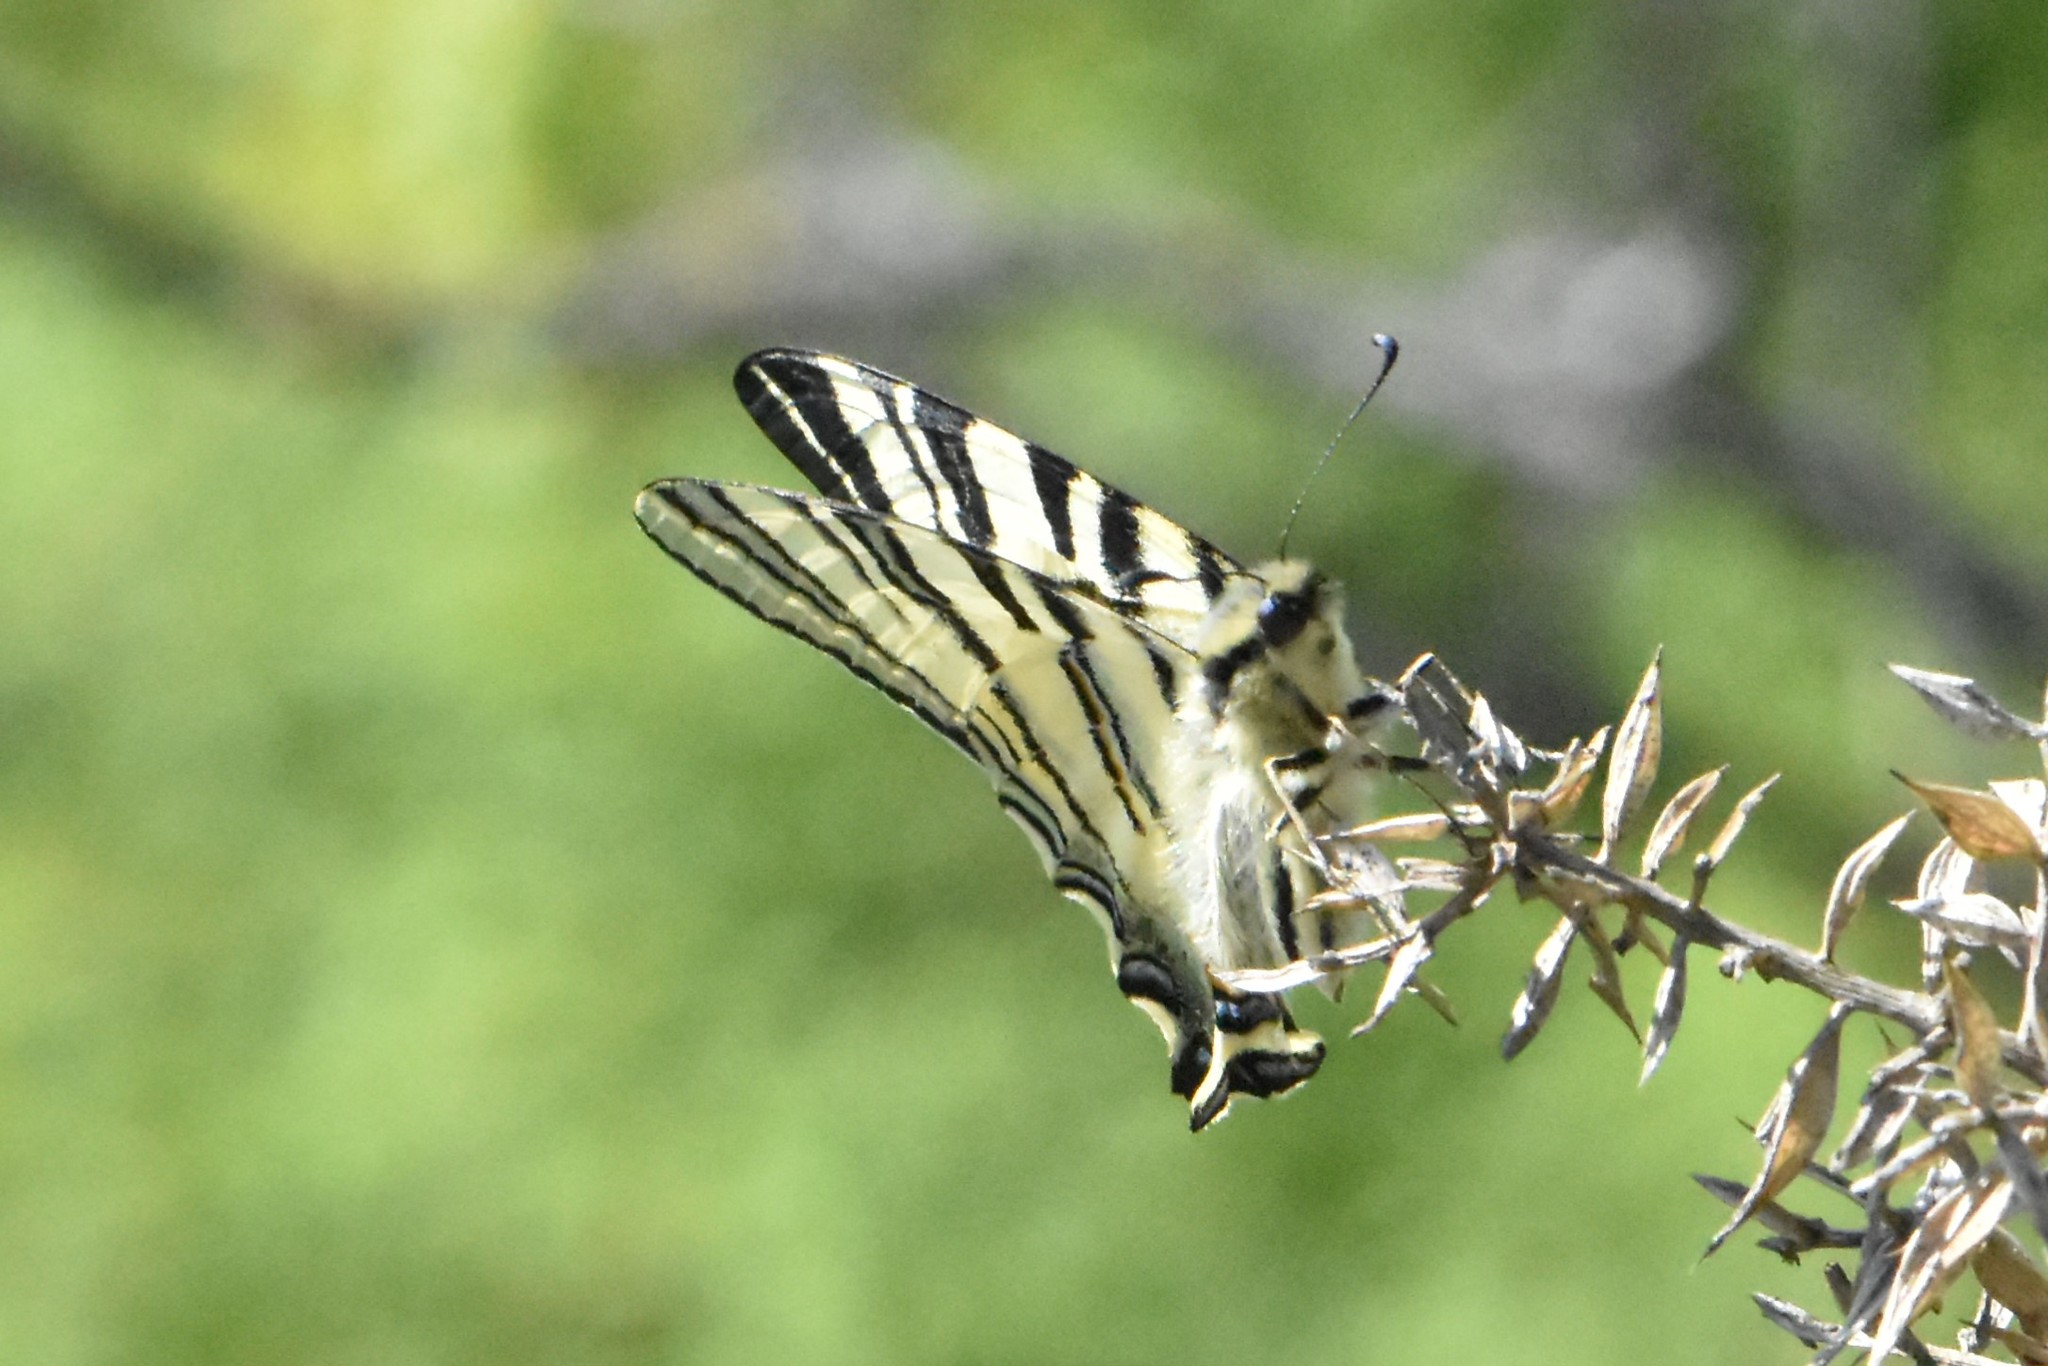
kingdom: Animalia
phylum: Arthropoda
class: Insecta
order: Lepidoptera
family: Papilionidae
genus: Iphiclides
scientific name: Iphiclides podalirius
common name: Scarce swallowtail
